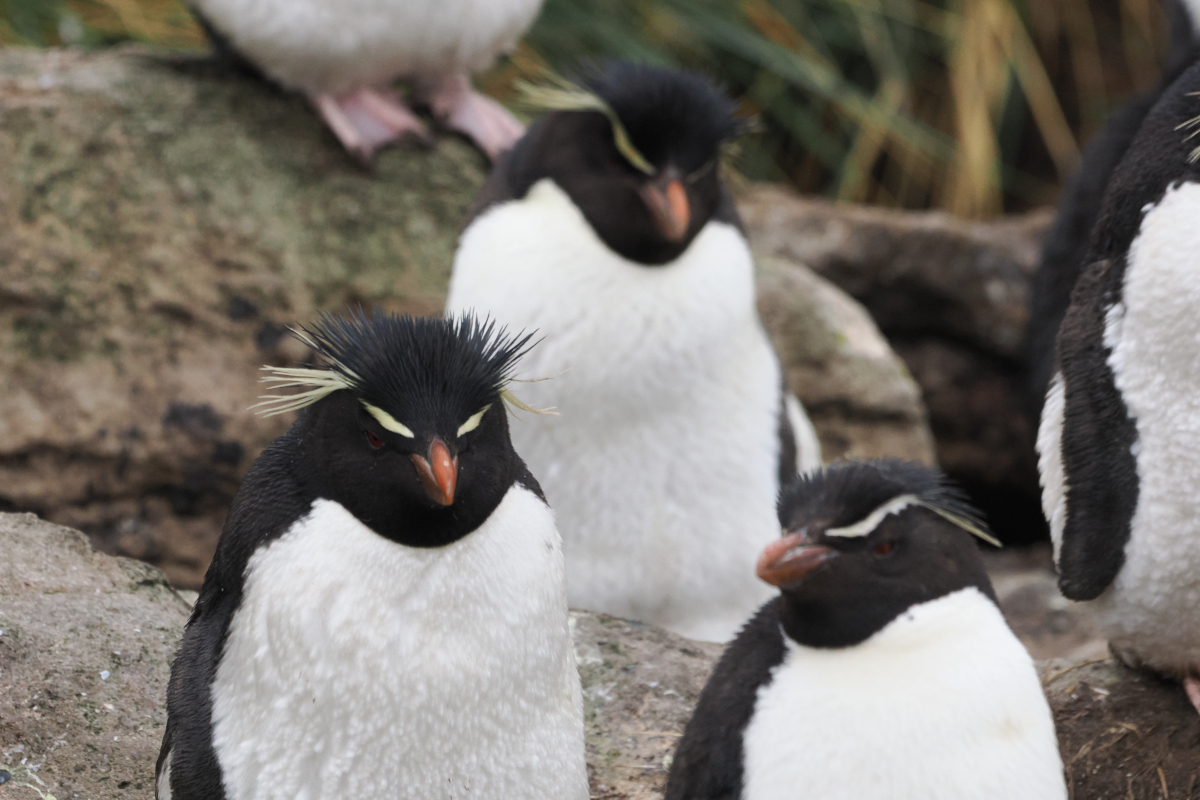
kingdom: Animalia
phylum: Chordata
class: Aves
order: Sphenisciformes
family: Spheniscidae
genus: Eudyptes
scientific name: Eudyptes chrysocome
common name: Southern rockhopper penguin
